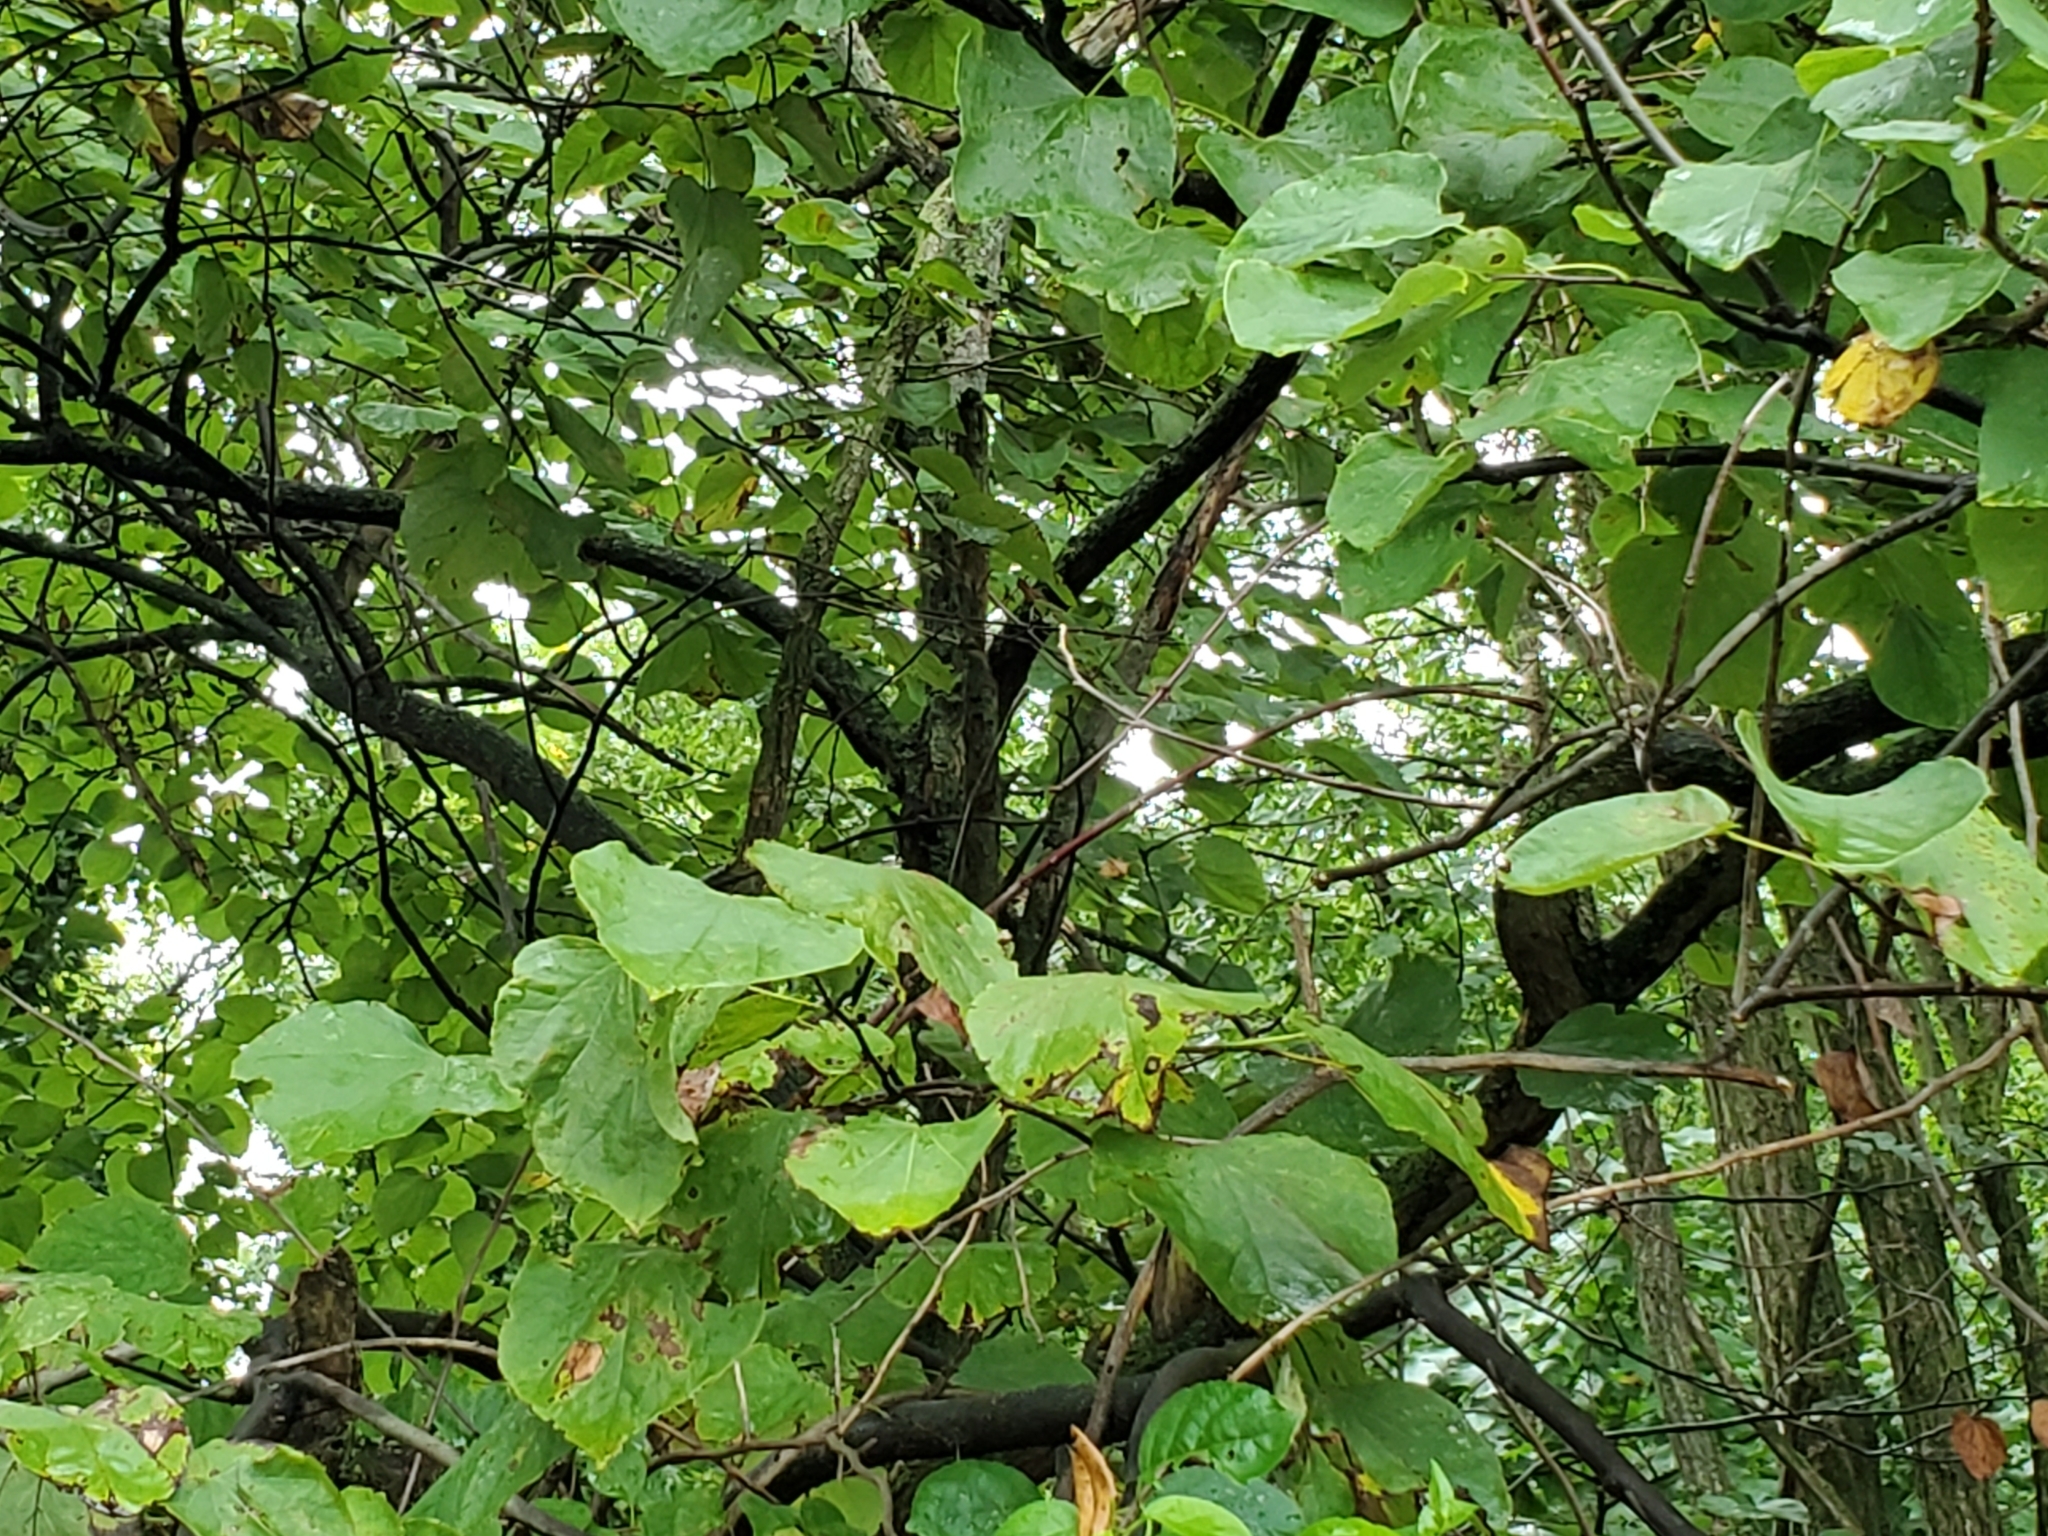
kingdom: Plantae
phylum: Tracheophyta
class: Magnoliopsida
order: Fabales
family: Fabaceae
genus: Cercis
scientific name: Cercis canadensis
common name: Eastern redbud
